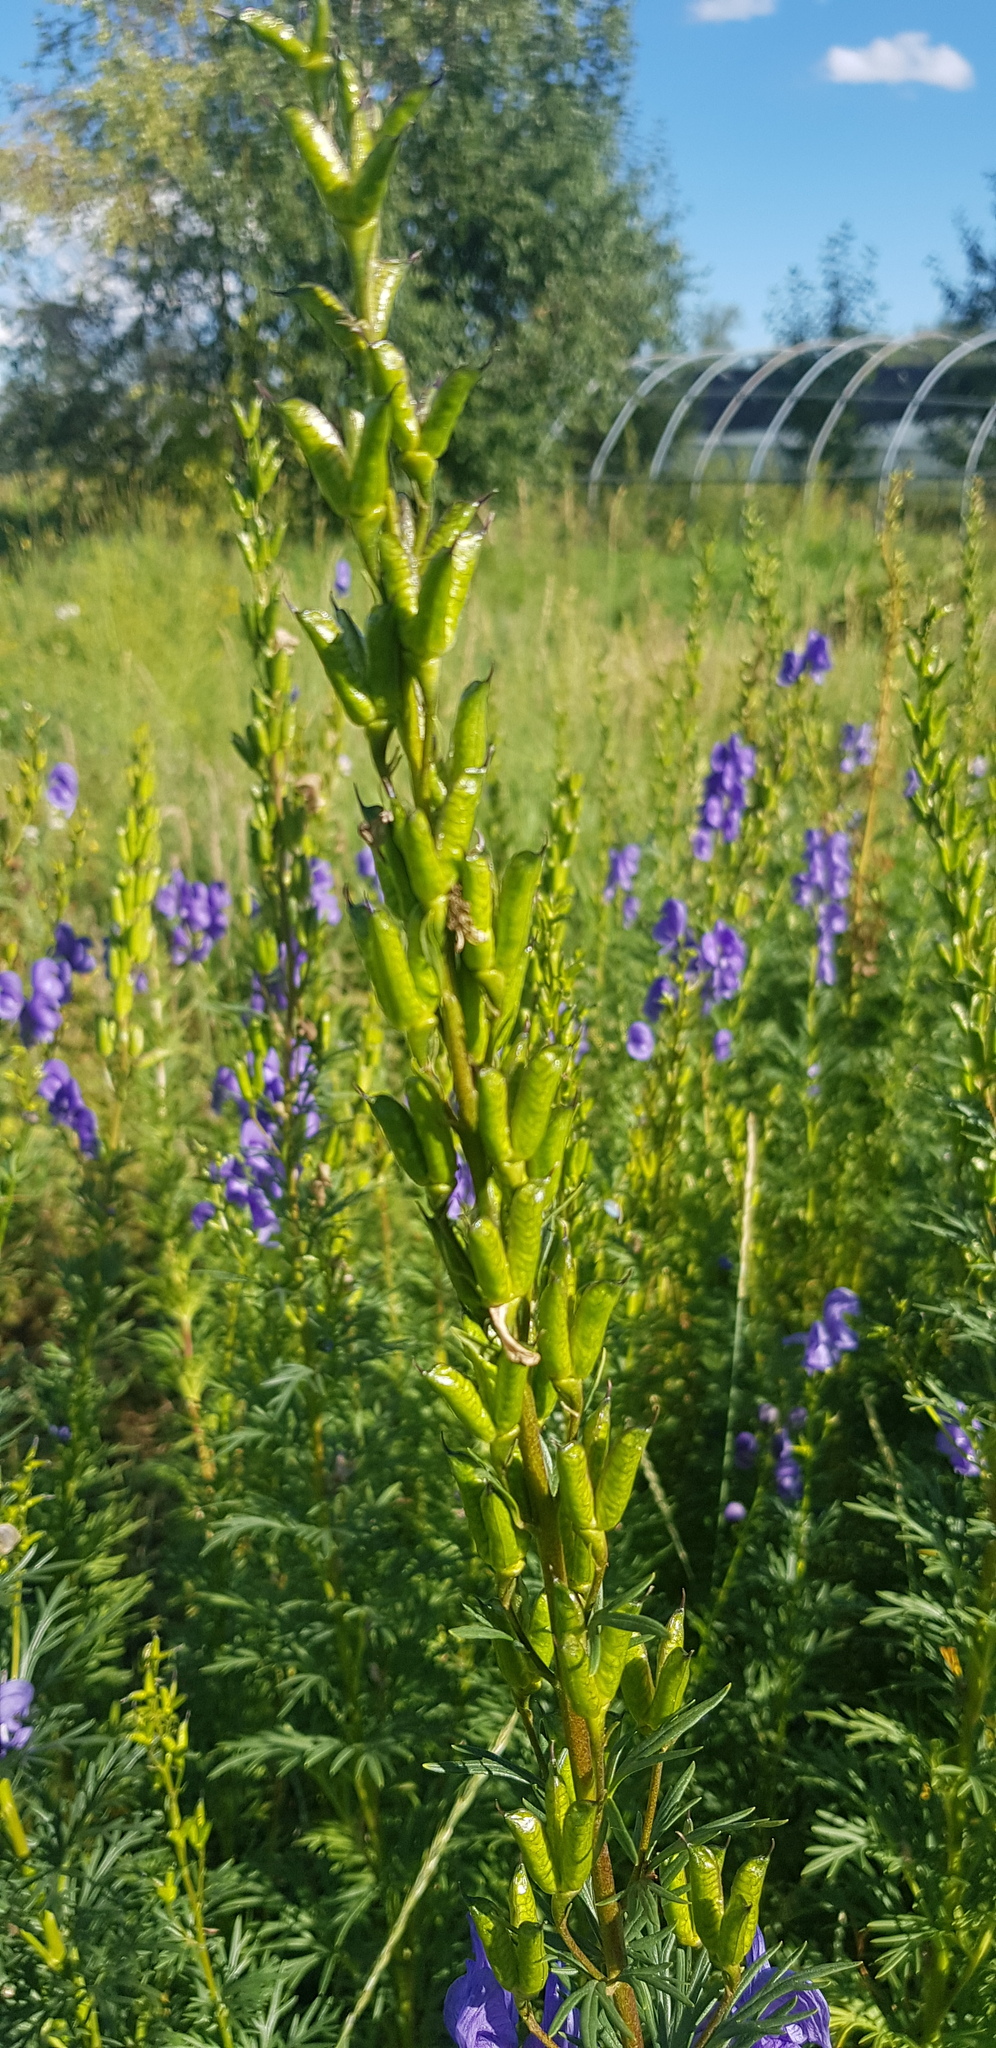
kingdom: Plantae
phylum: Tracheophyta
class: Magnoliopsida
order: Ranunculales
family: Ranunculaceae
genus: Aconitum
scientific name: Aconitum baicalense
